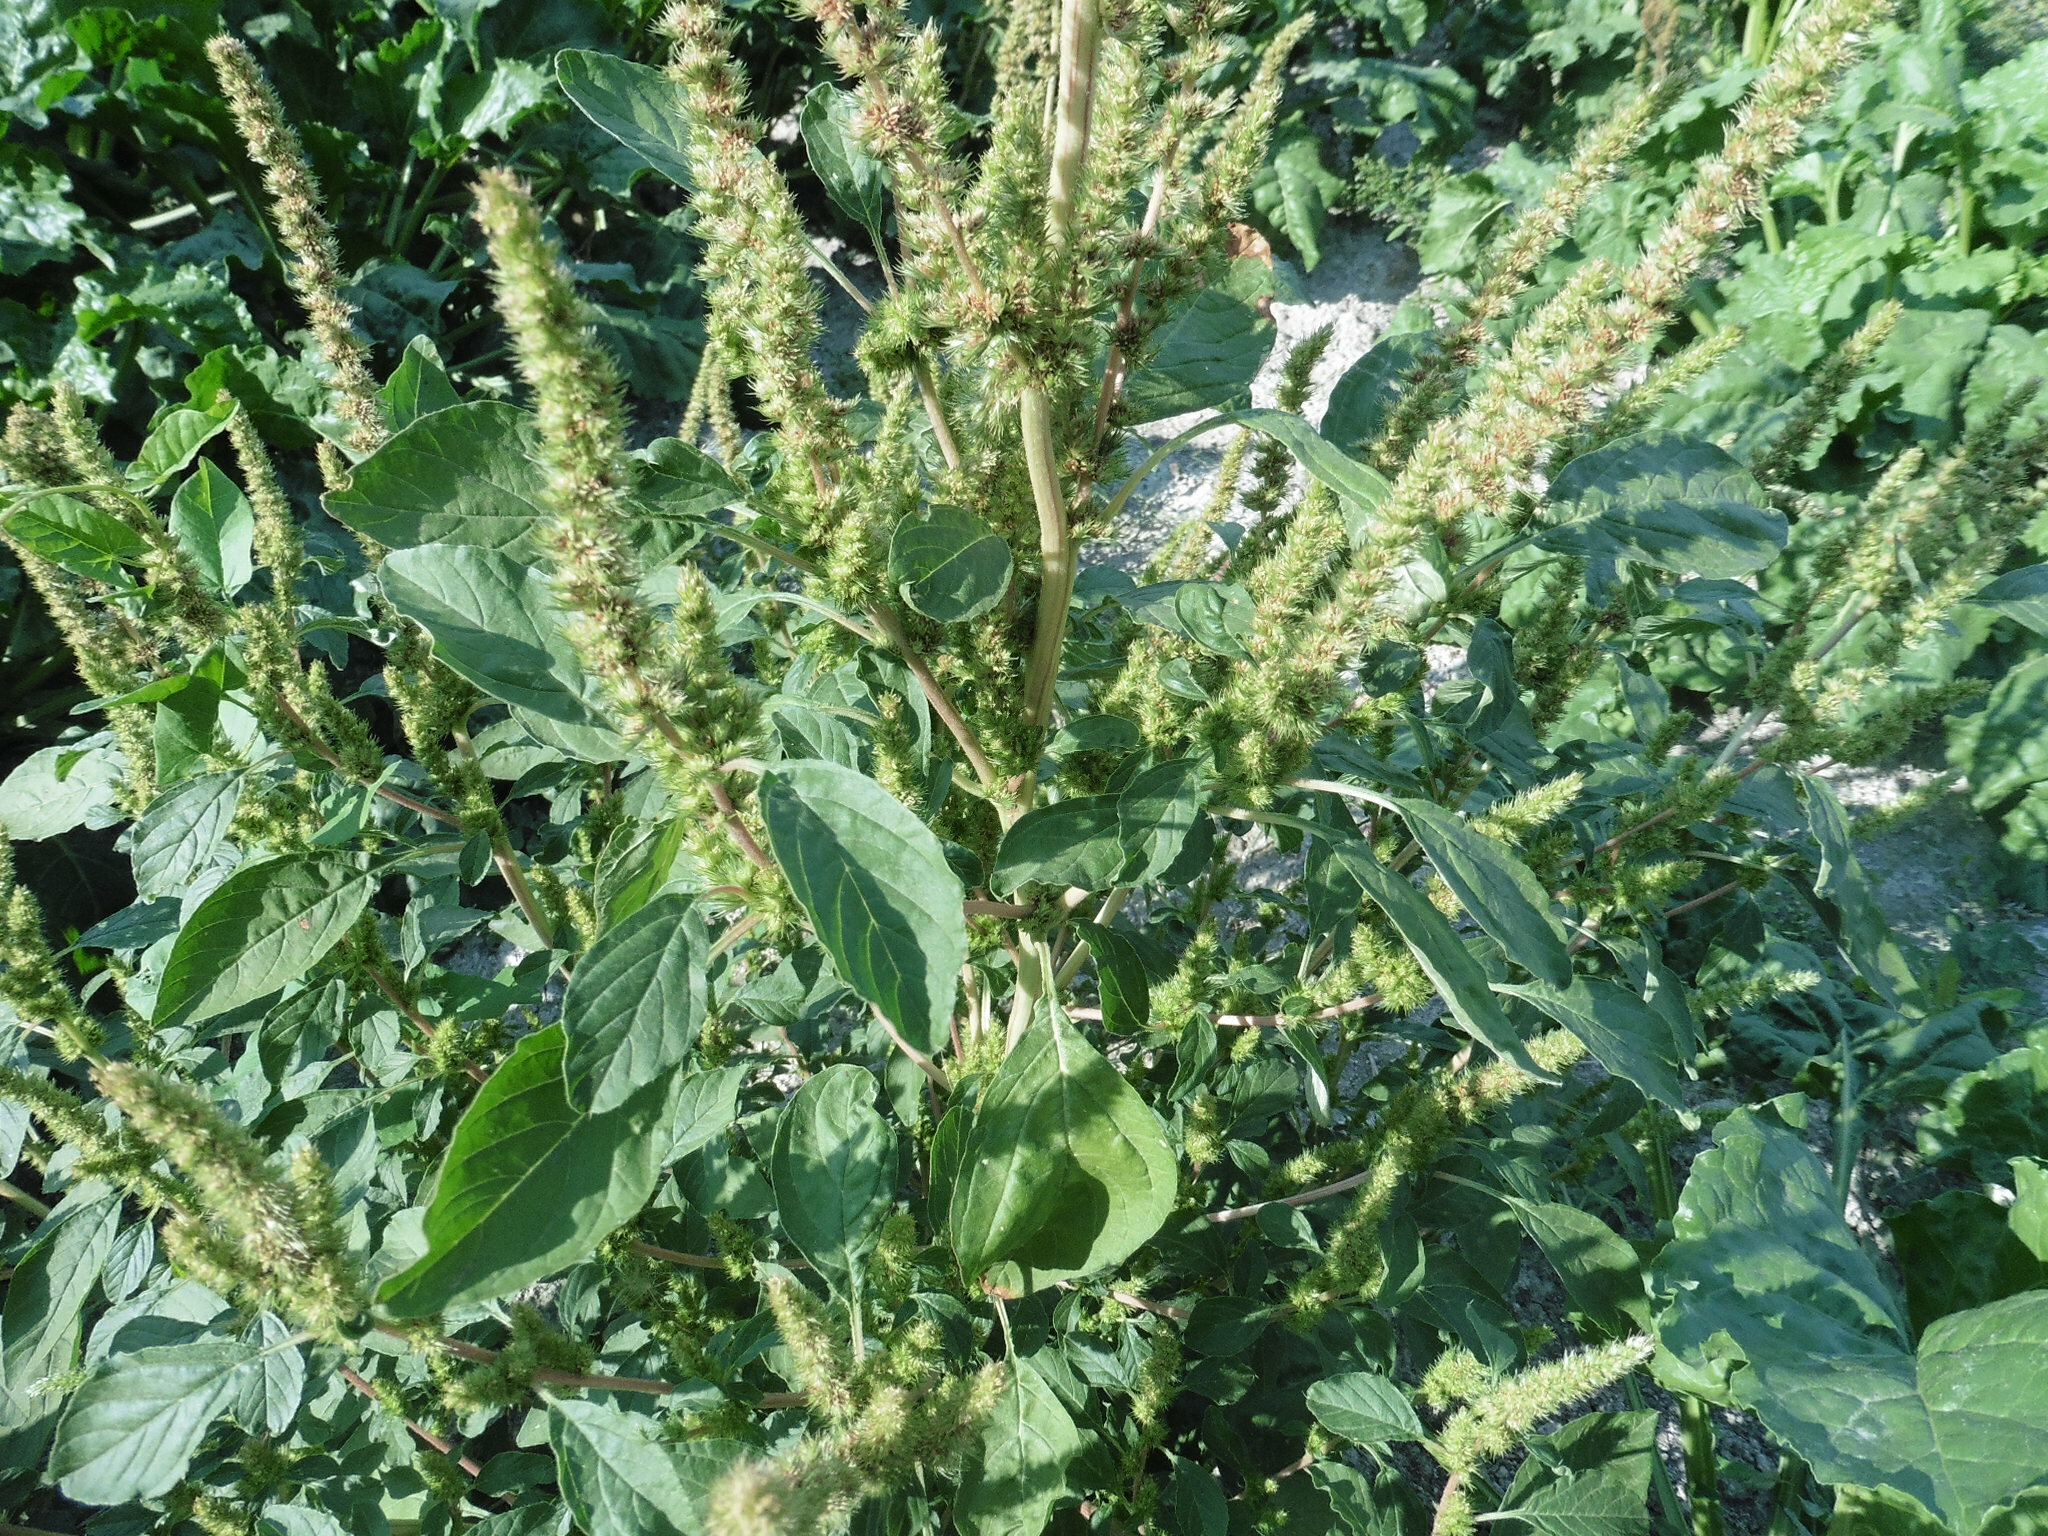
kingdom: Plantae
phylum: Tracheophyta
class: Magnoliopsida
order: Caryophyllales
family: Amaranthaceae
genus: Amaranthus
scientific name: Amaranthus retroflexus
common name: Redroot amaranth
